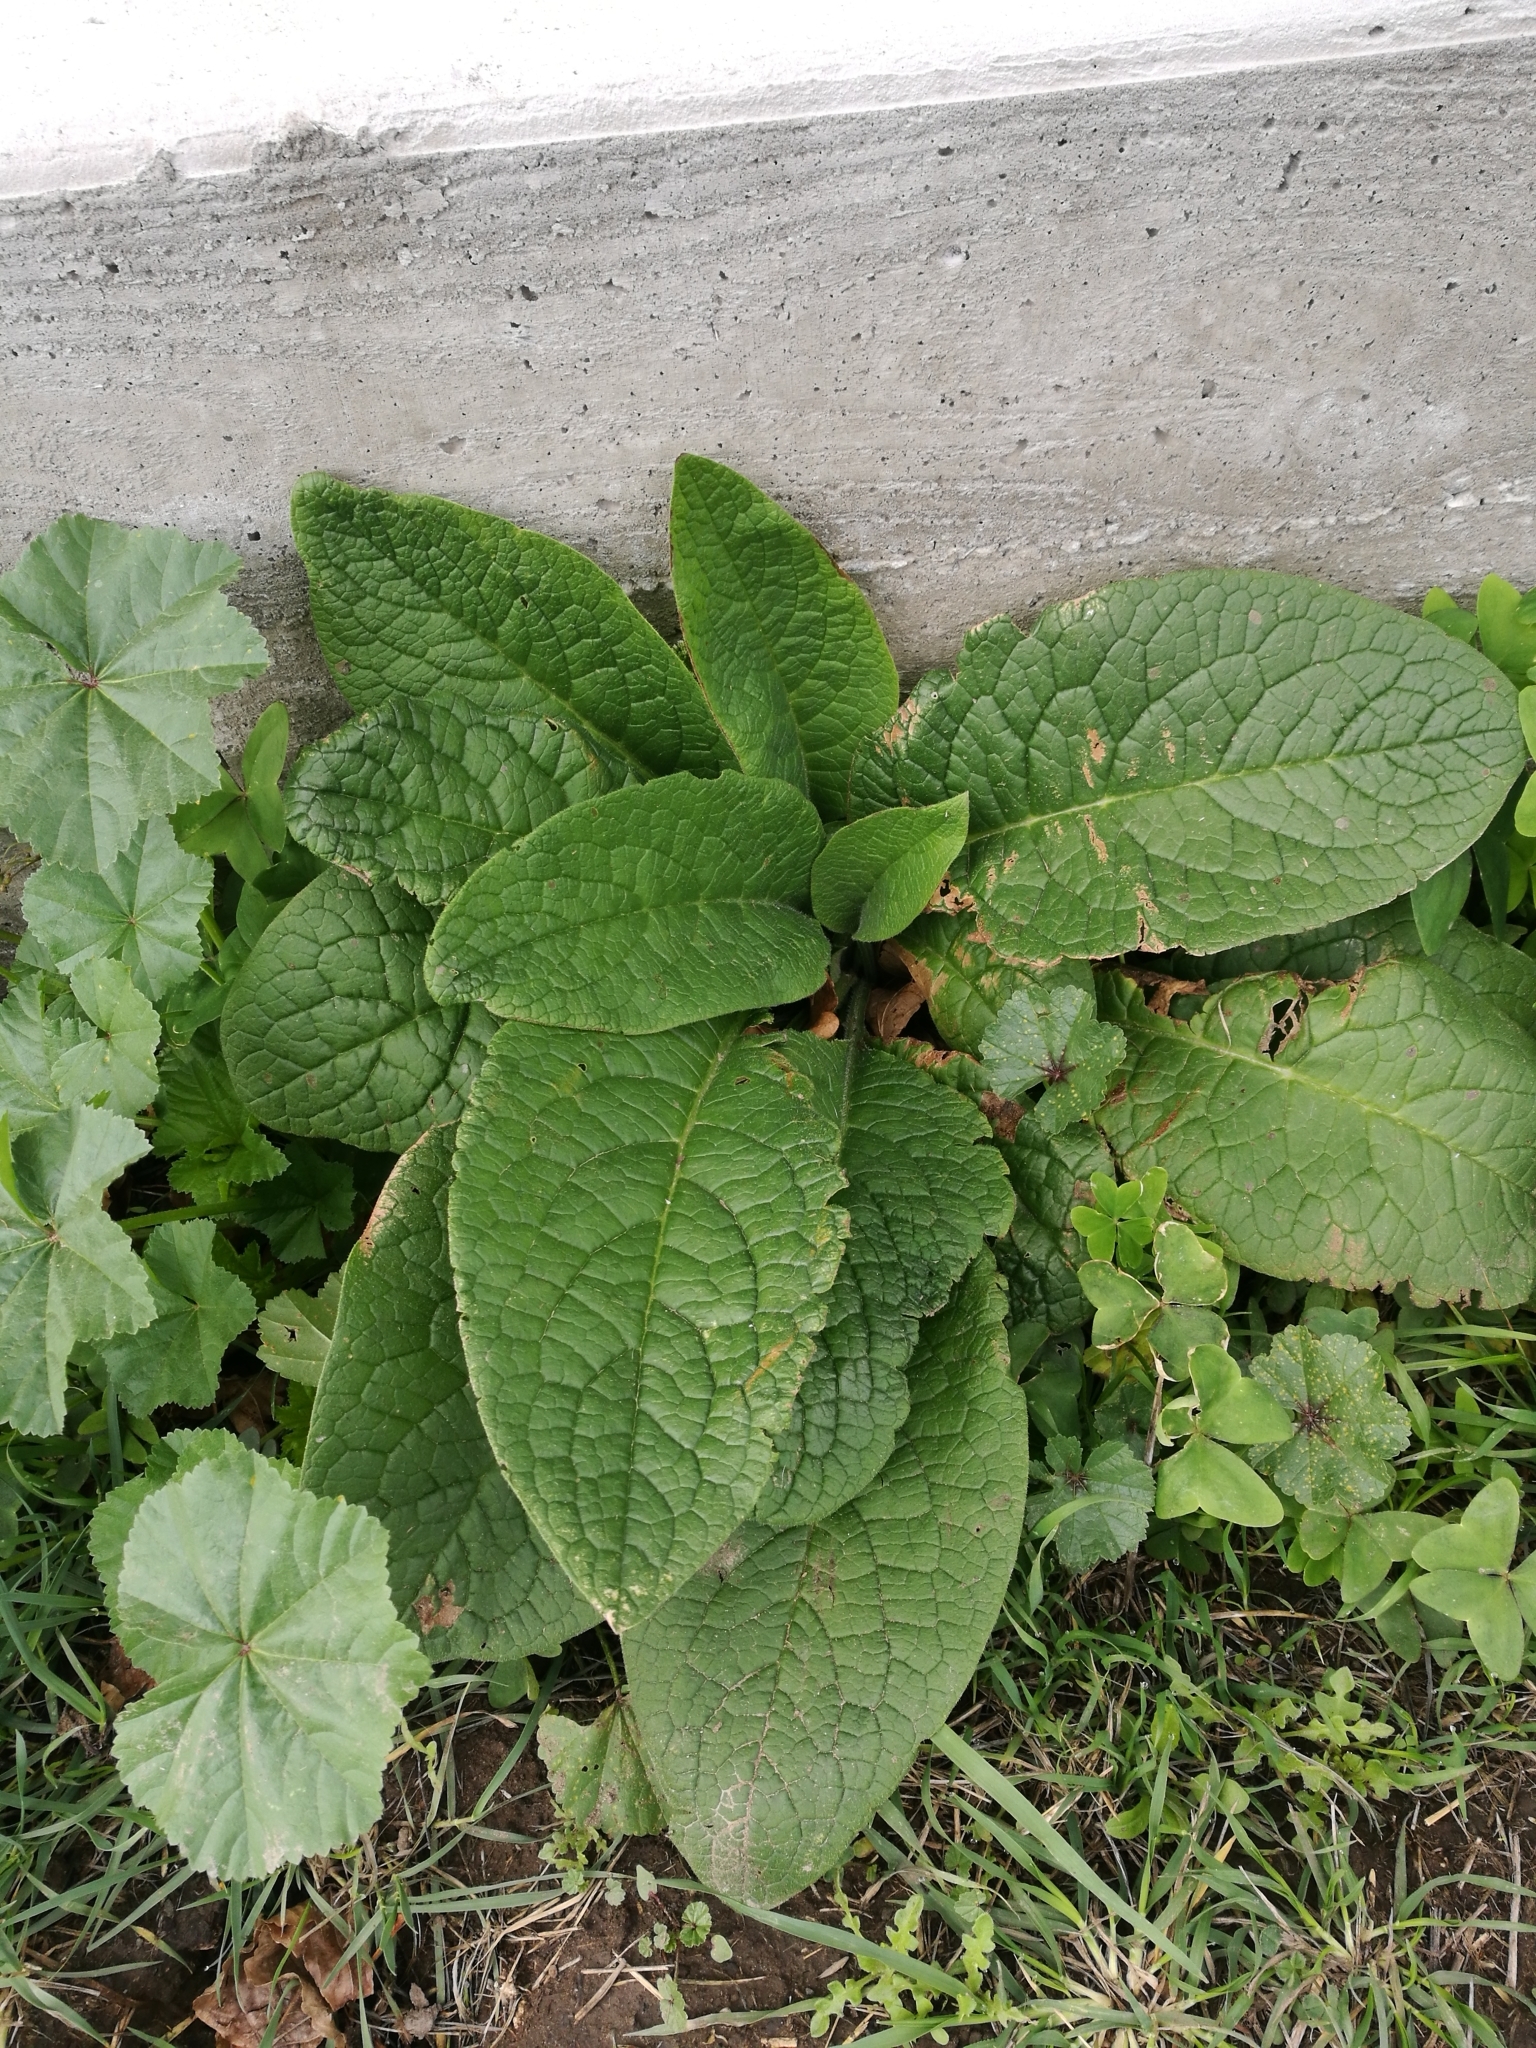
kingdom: Plantae
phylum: Tracheophyta
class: Magnoliopsida
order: Boraginales
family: Boraginaceae
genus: Symphytum
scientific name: Symphytum officinale
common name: Common comfrey
